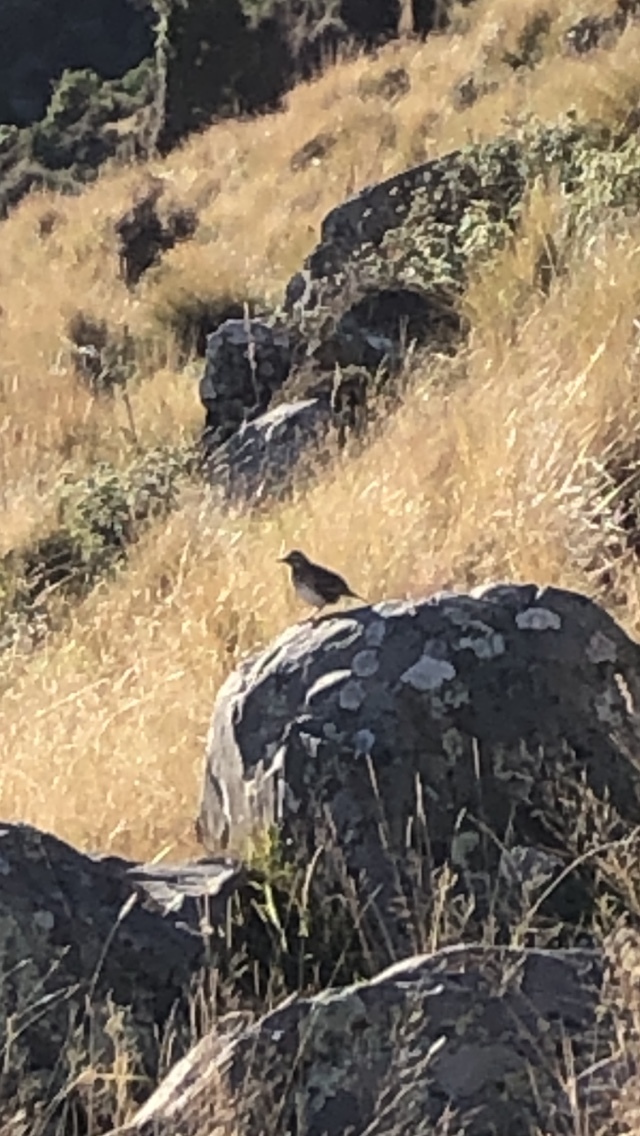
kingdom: Animalia
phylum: Chordata
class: Aves
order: Passeriformes
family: Motacillidae
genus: Anthus
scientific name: Anthus novaeseelandiae
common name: New zealand pipit
